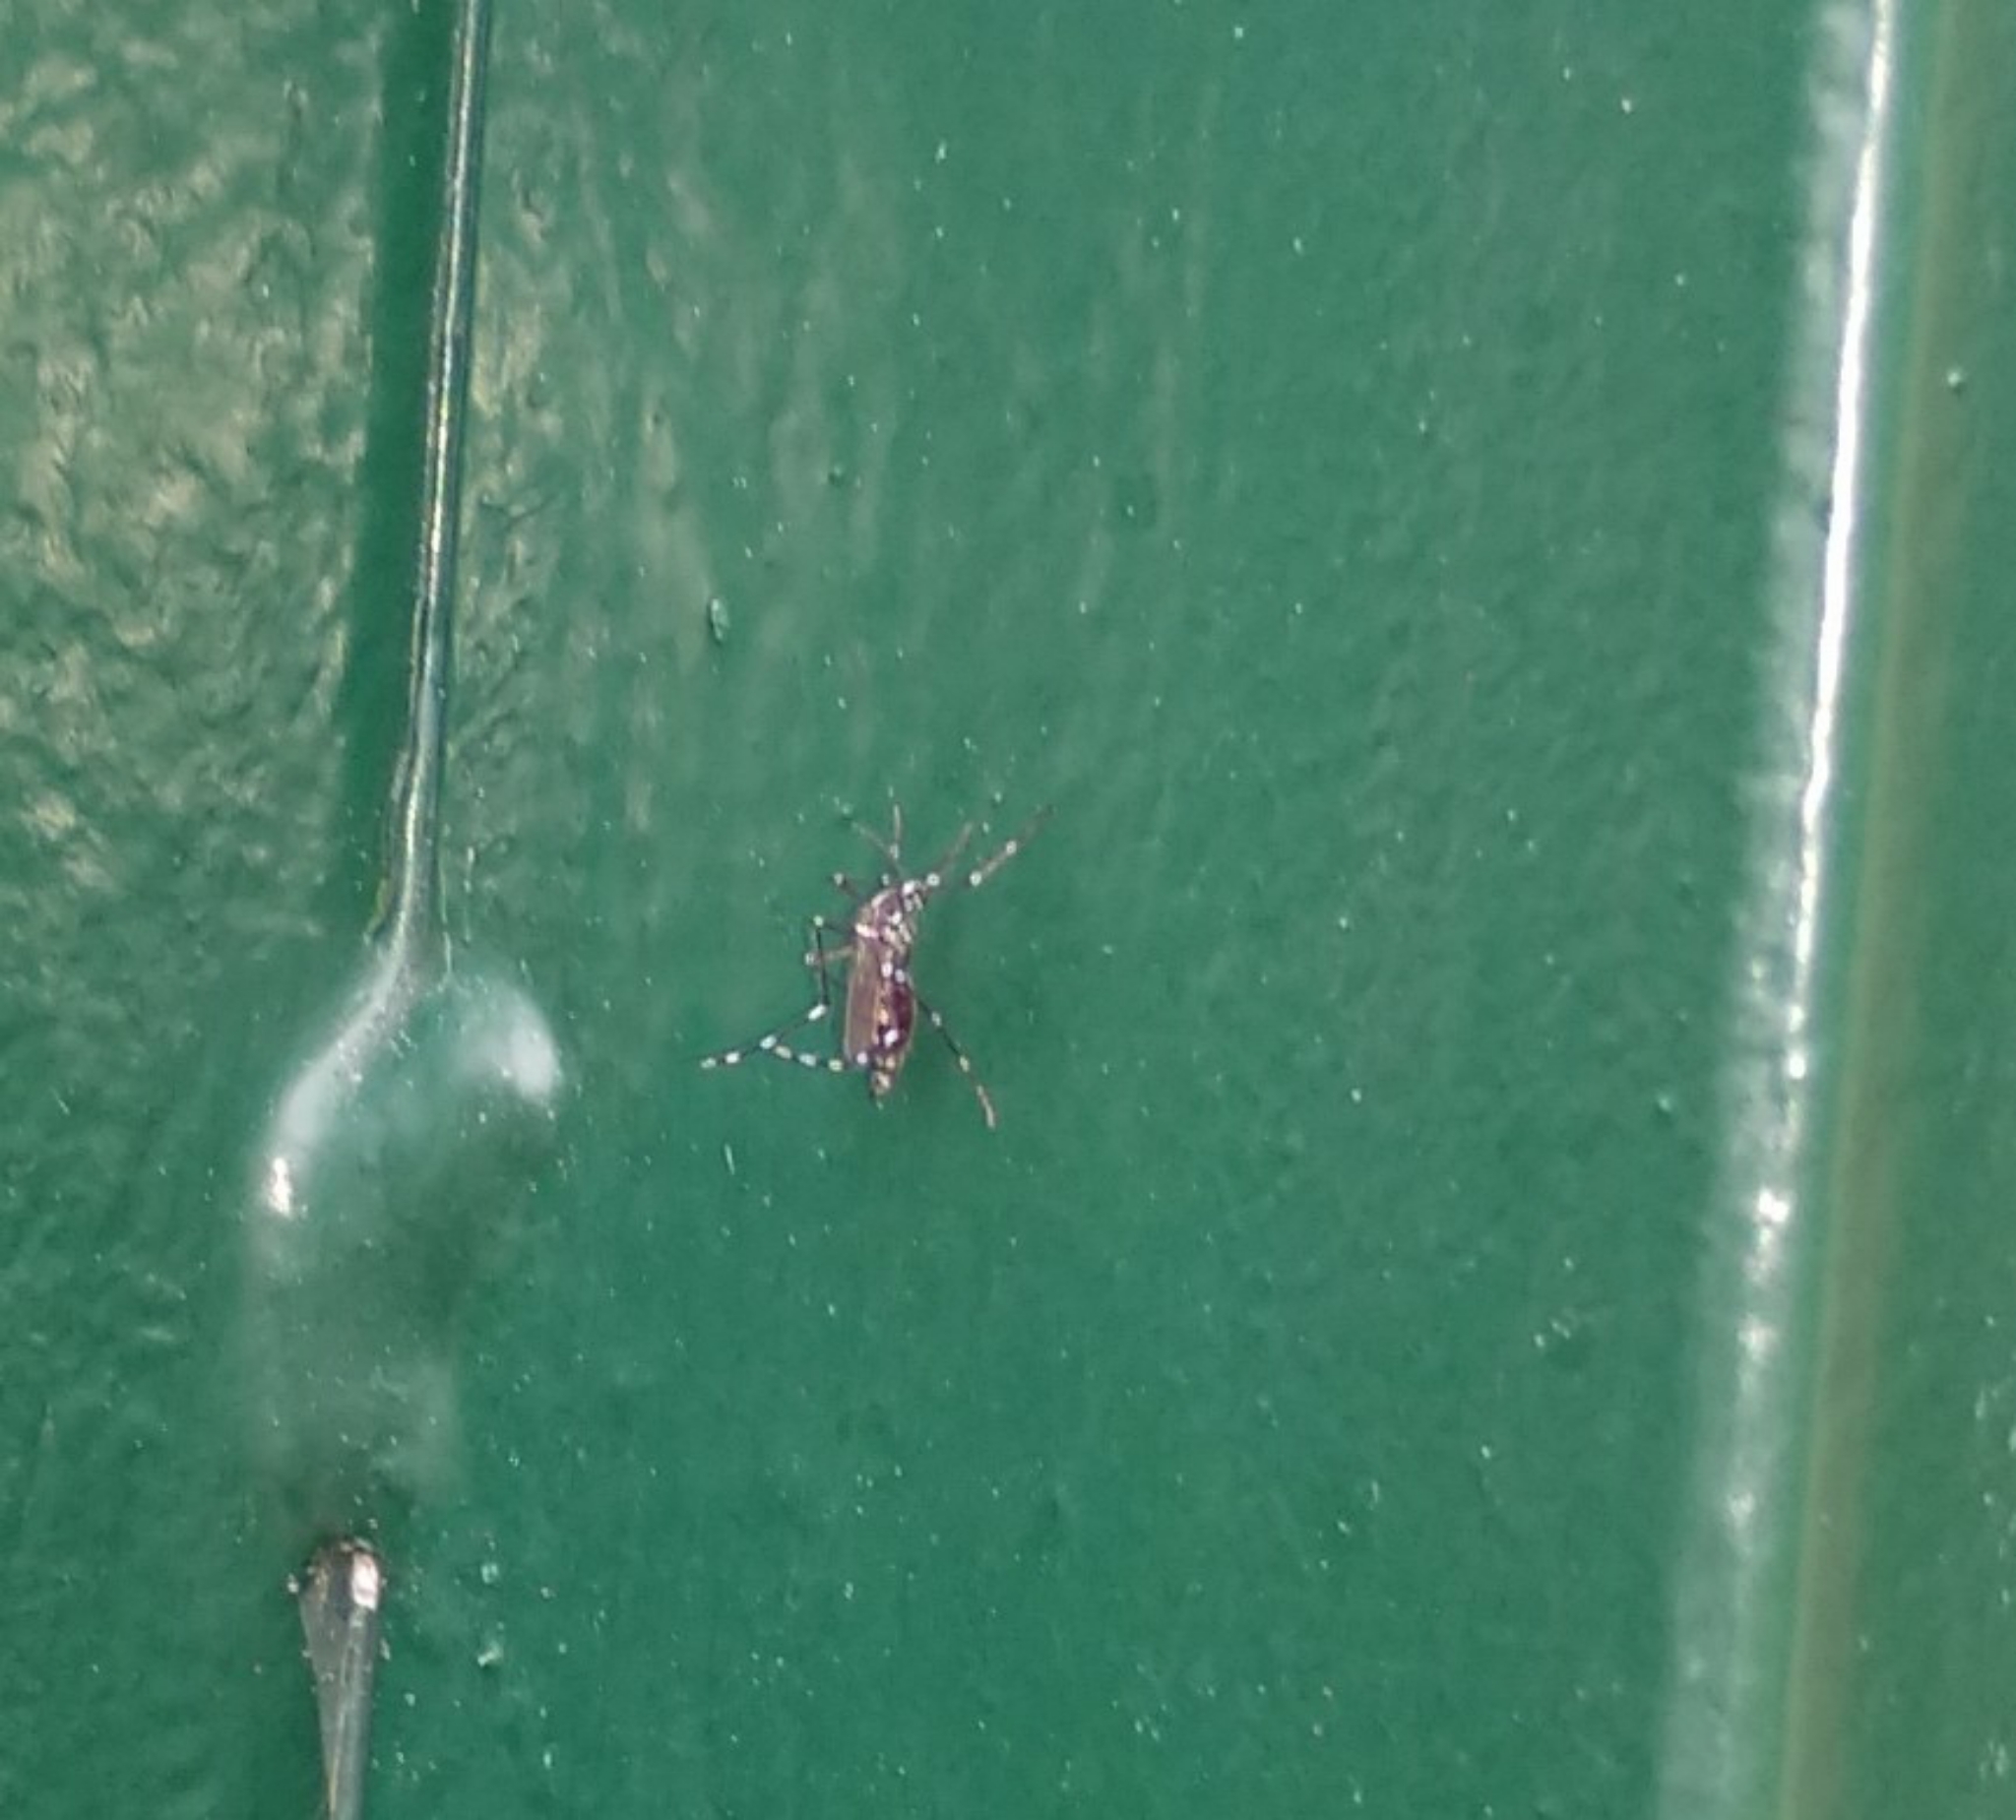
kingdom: Animalia
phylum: Arthropoda
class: Insecta
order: Diptera
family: Culicidae
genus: Aedes
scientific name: Aedes albopictus
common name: Tiger mosquito
